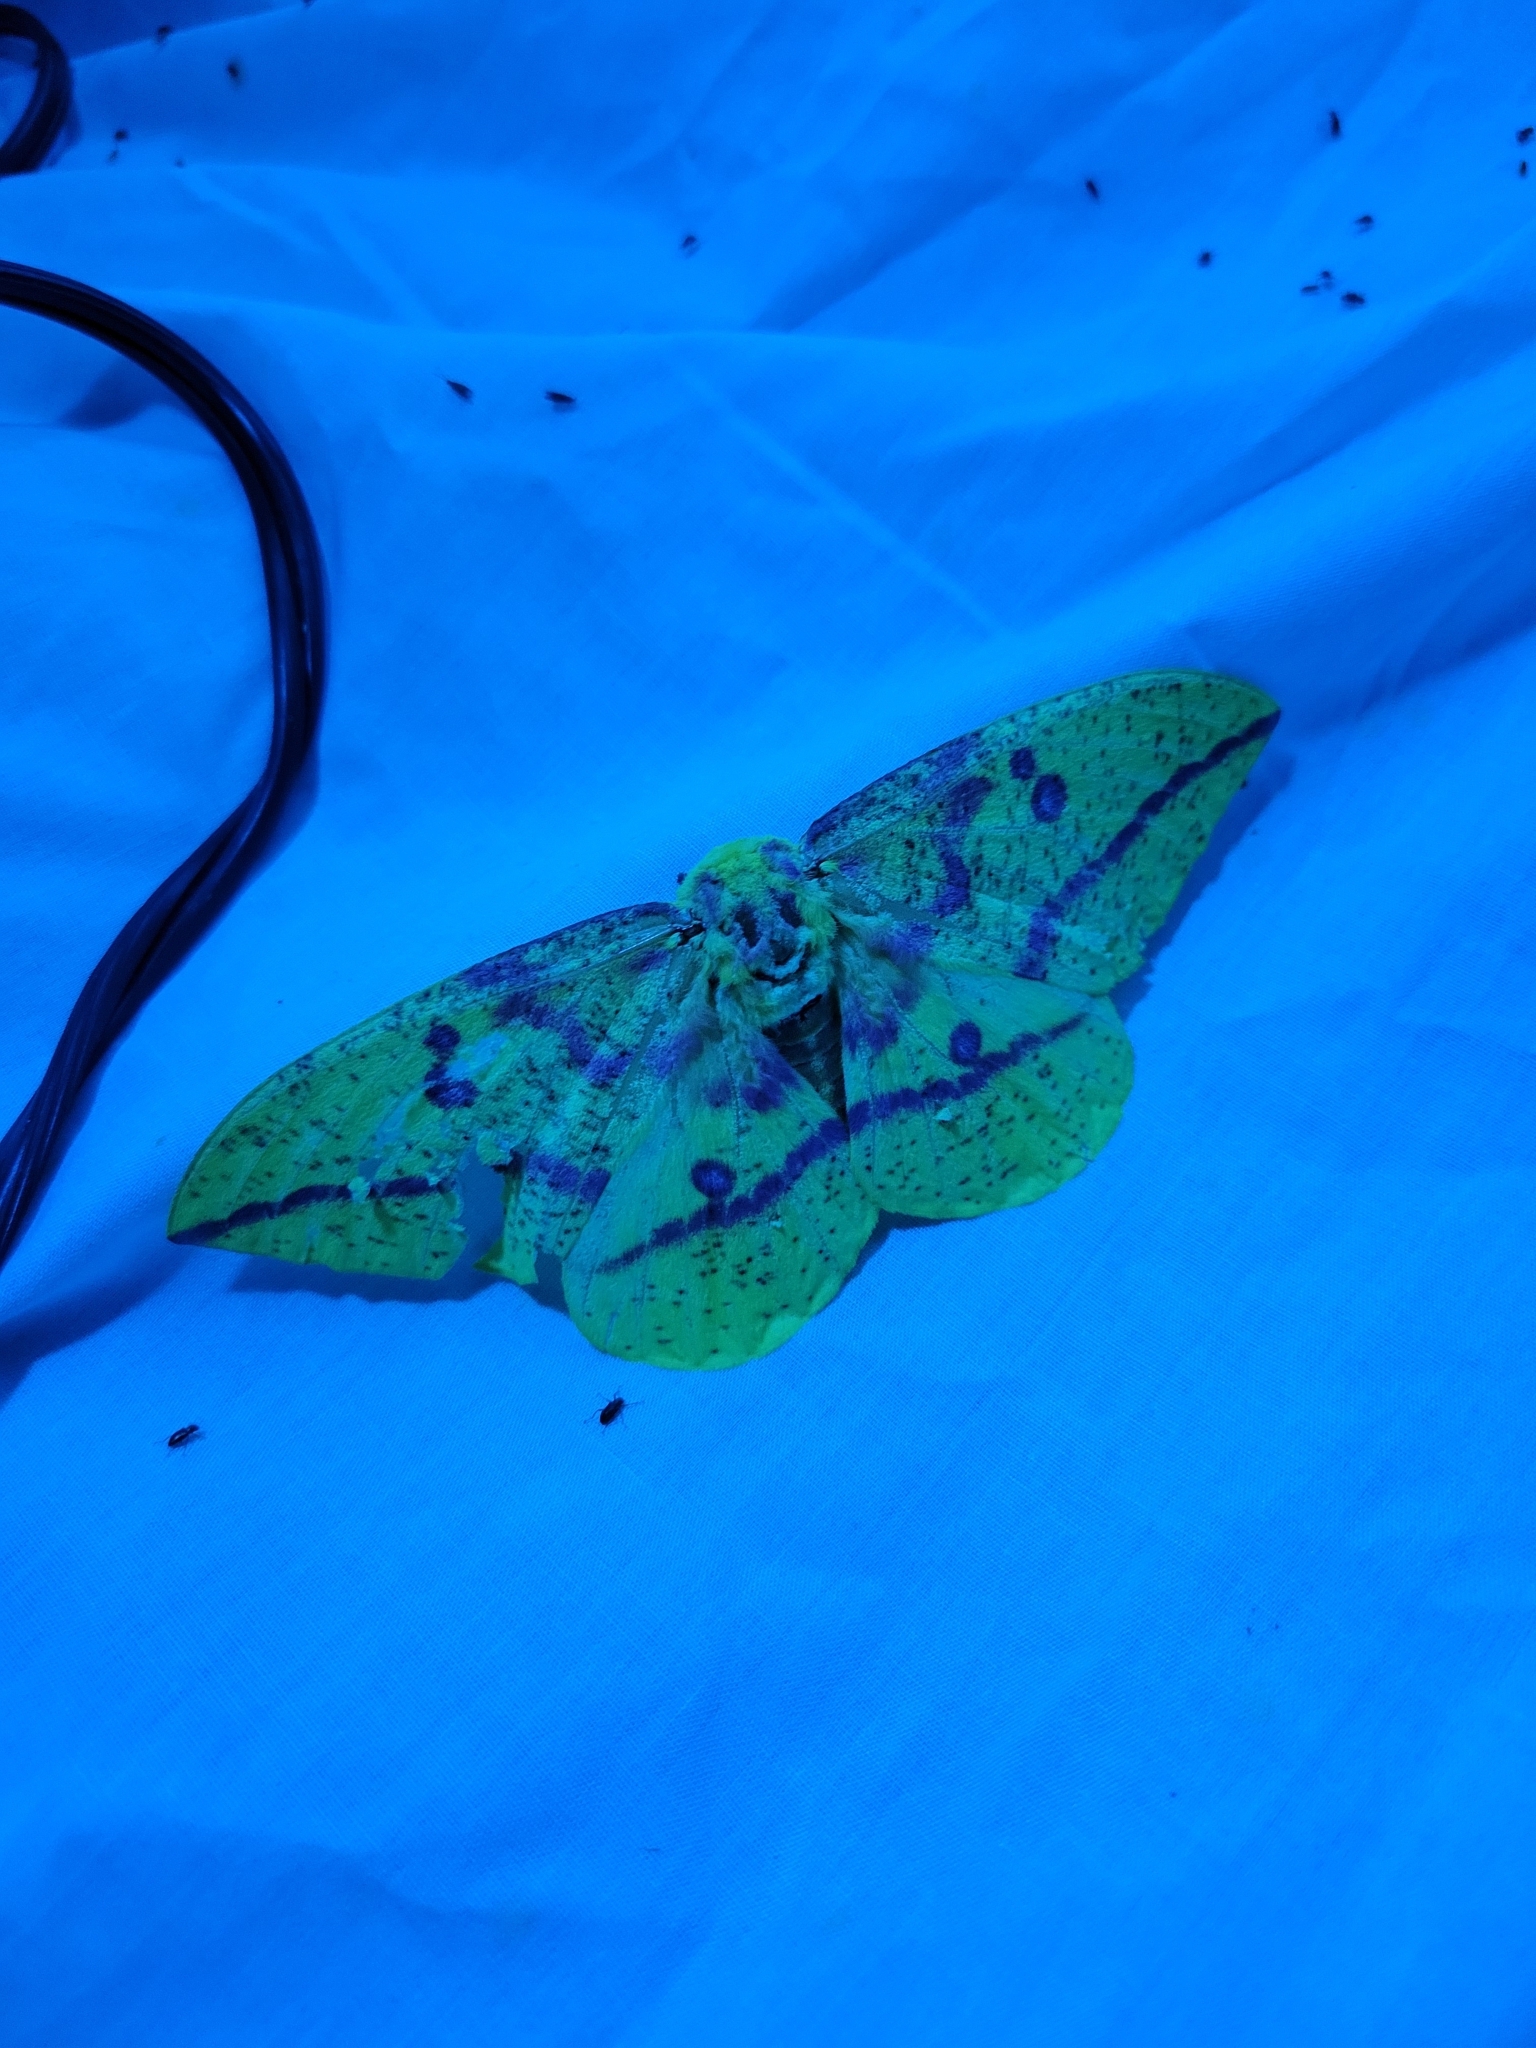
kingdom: Animalia
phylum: Arthropoda
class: Insecta
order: Lepidoptera
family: Saturniidae
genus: Eacles
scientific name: Eacles imperialis
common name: Imperial moth
